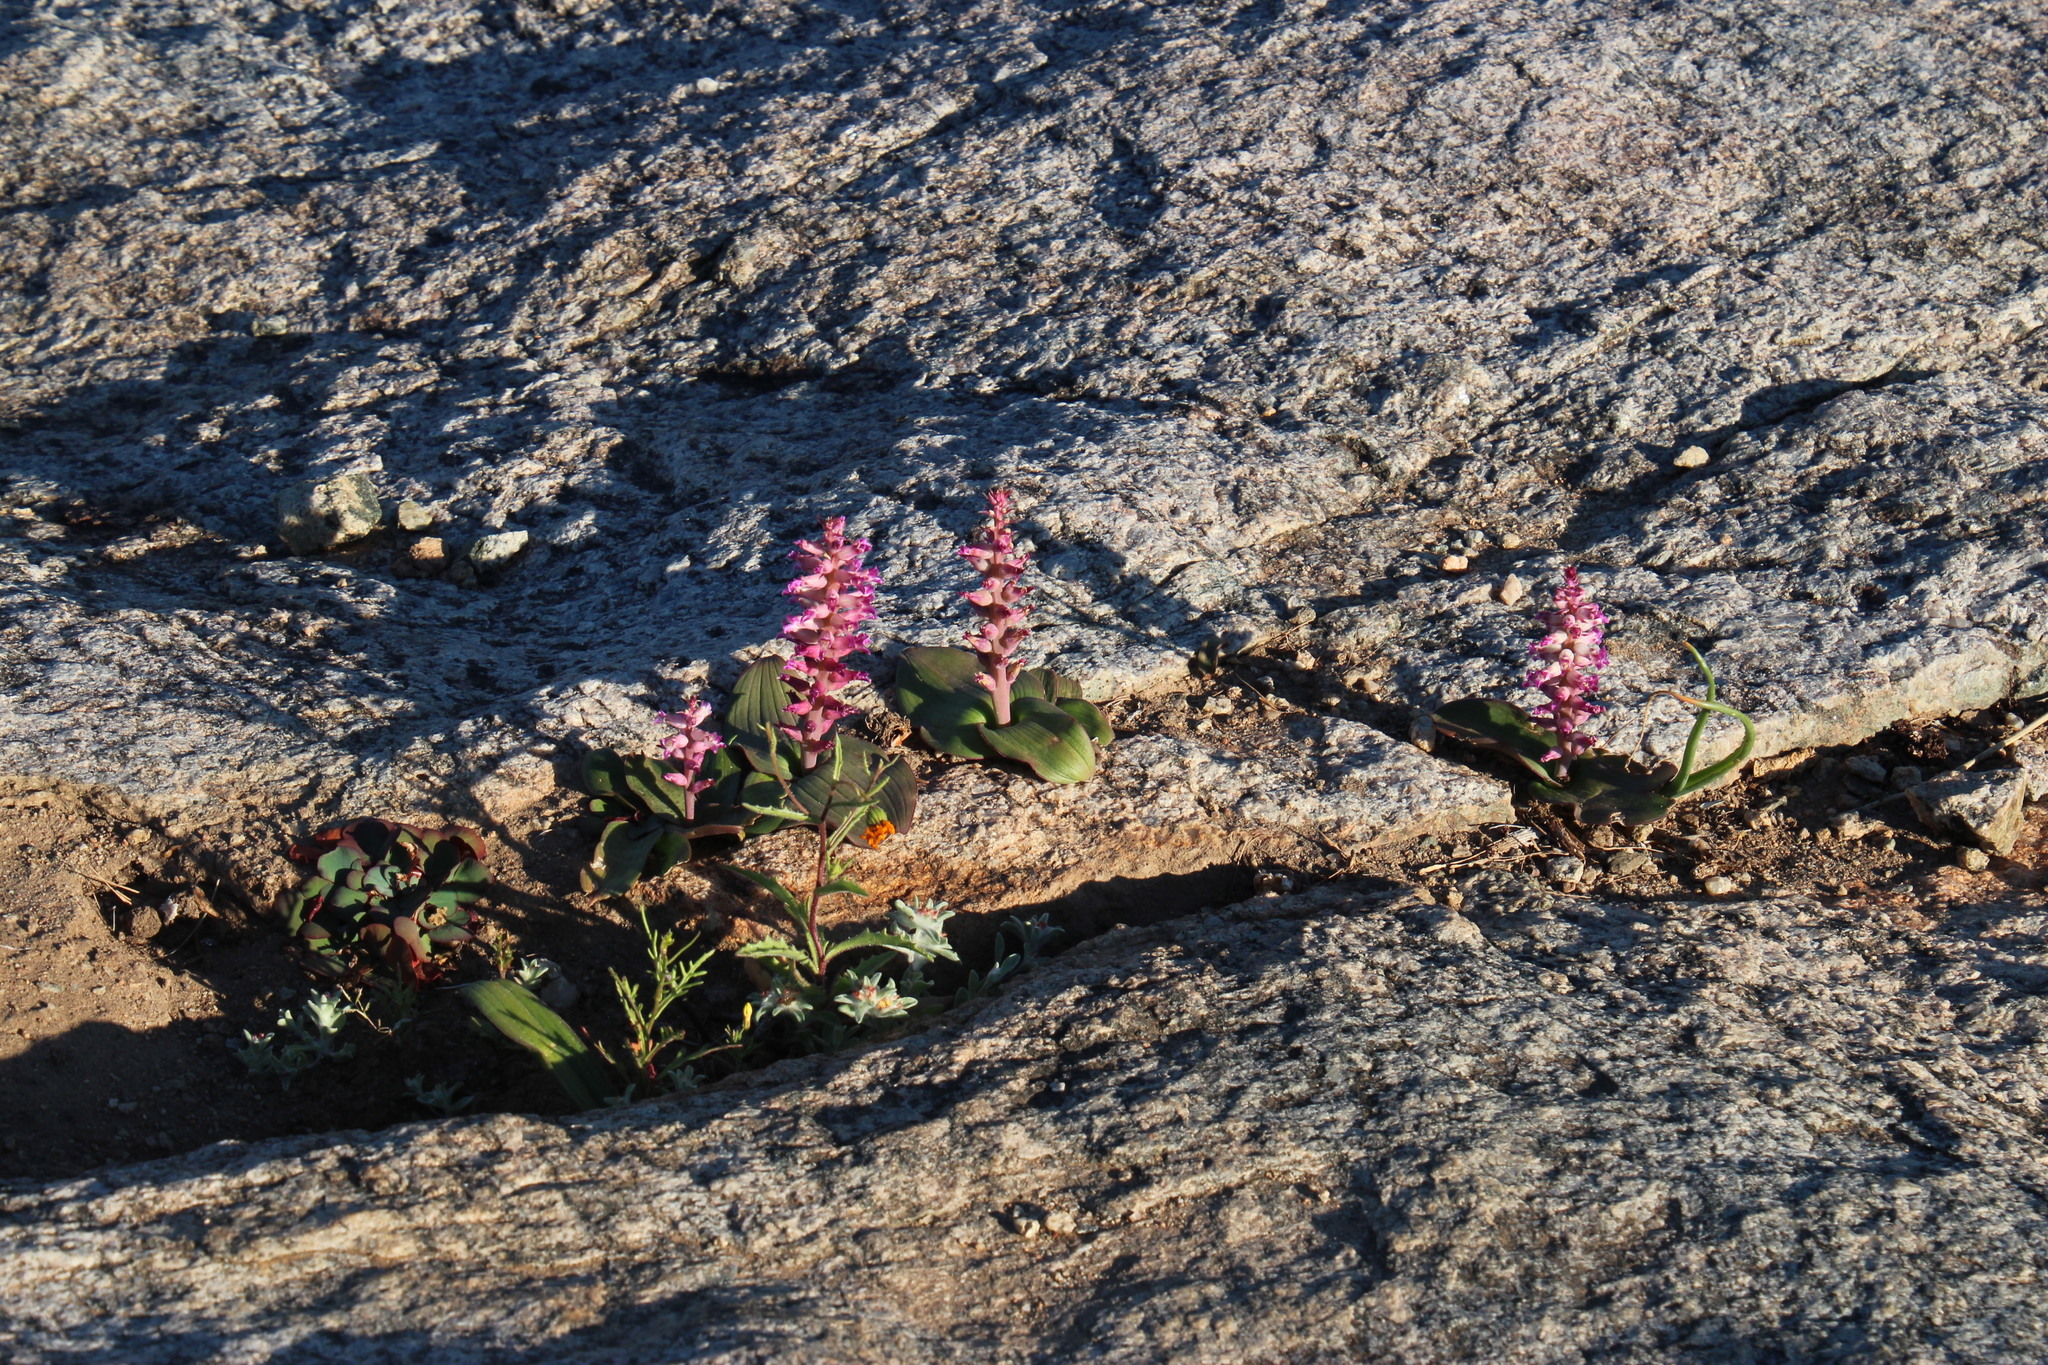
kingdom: Plantae
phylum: Tracheophyta
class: Liliopsida
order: Asparagales
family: Asparagaceae
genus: Lachenalia
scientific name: Lachenalia carnosa
